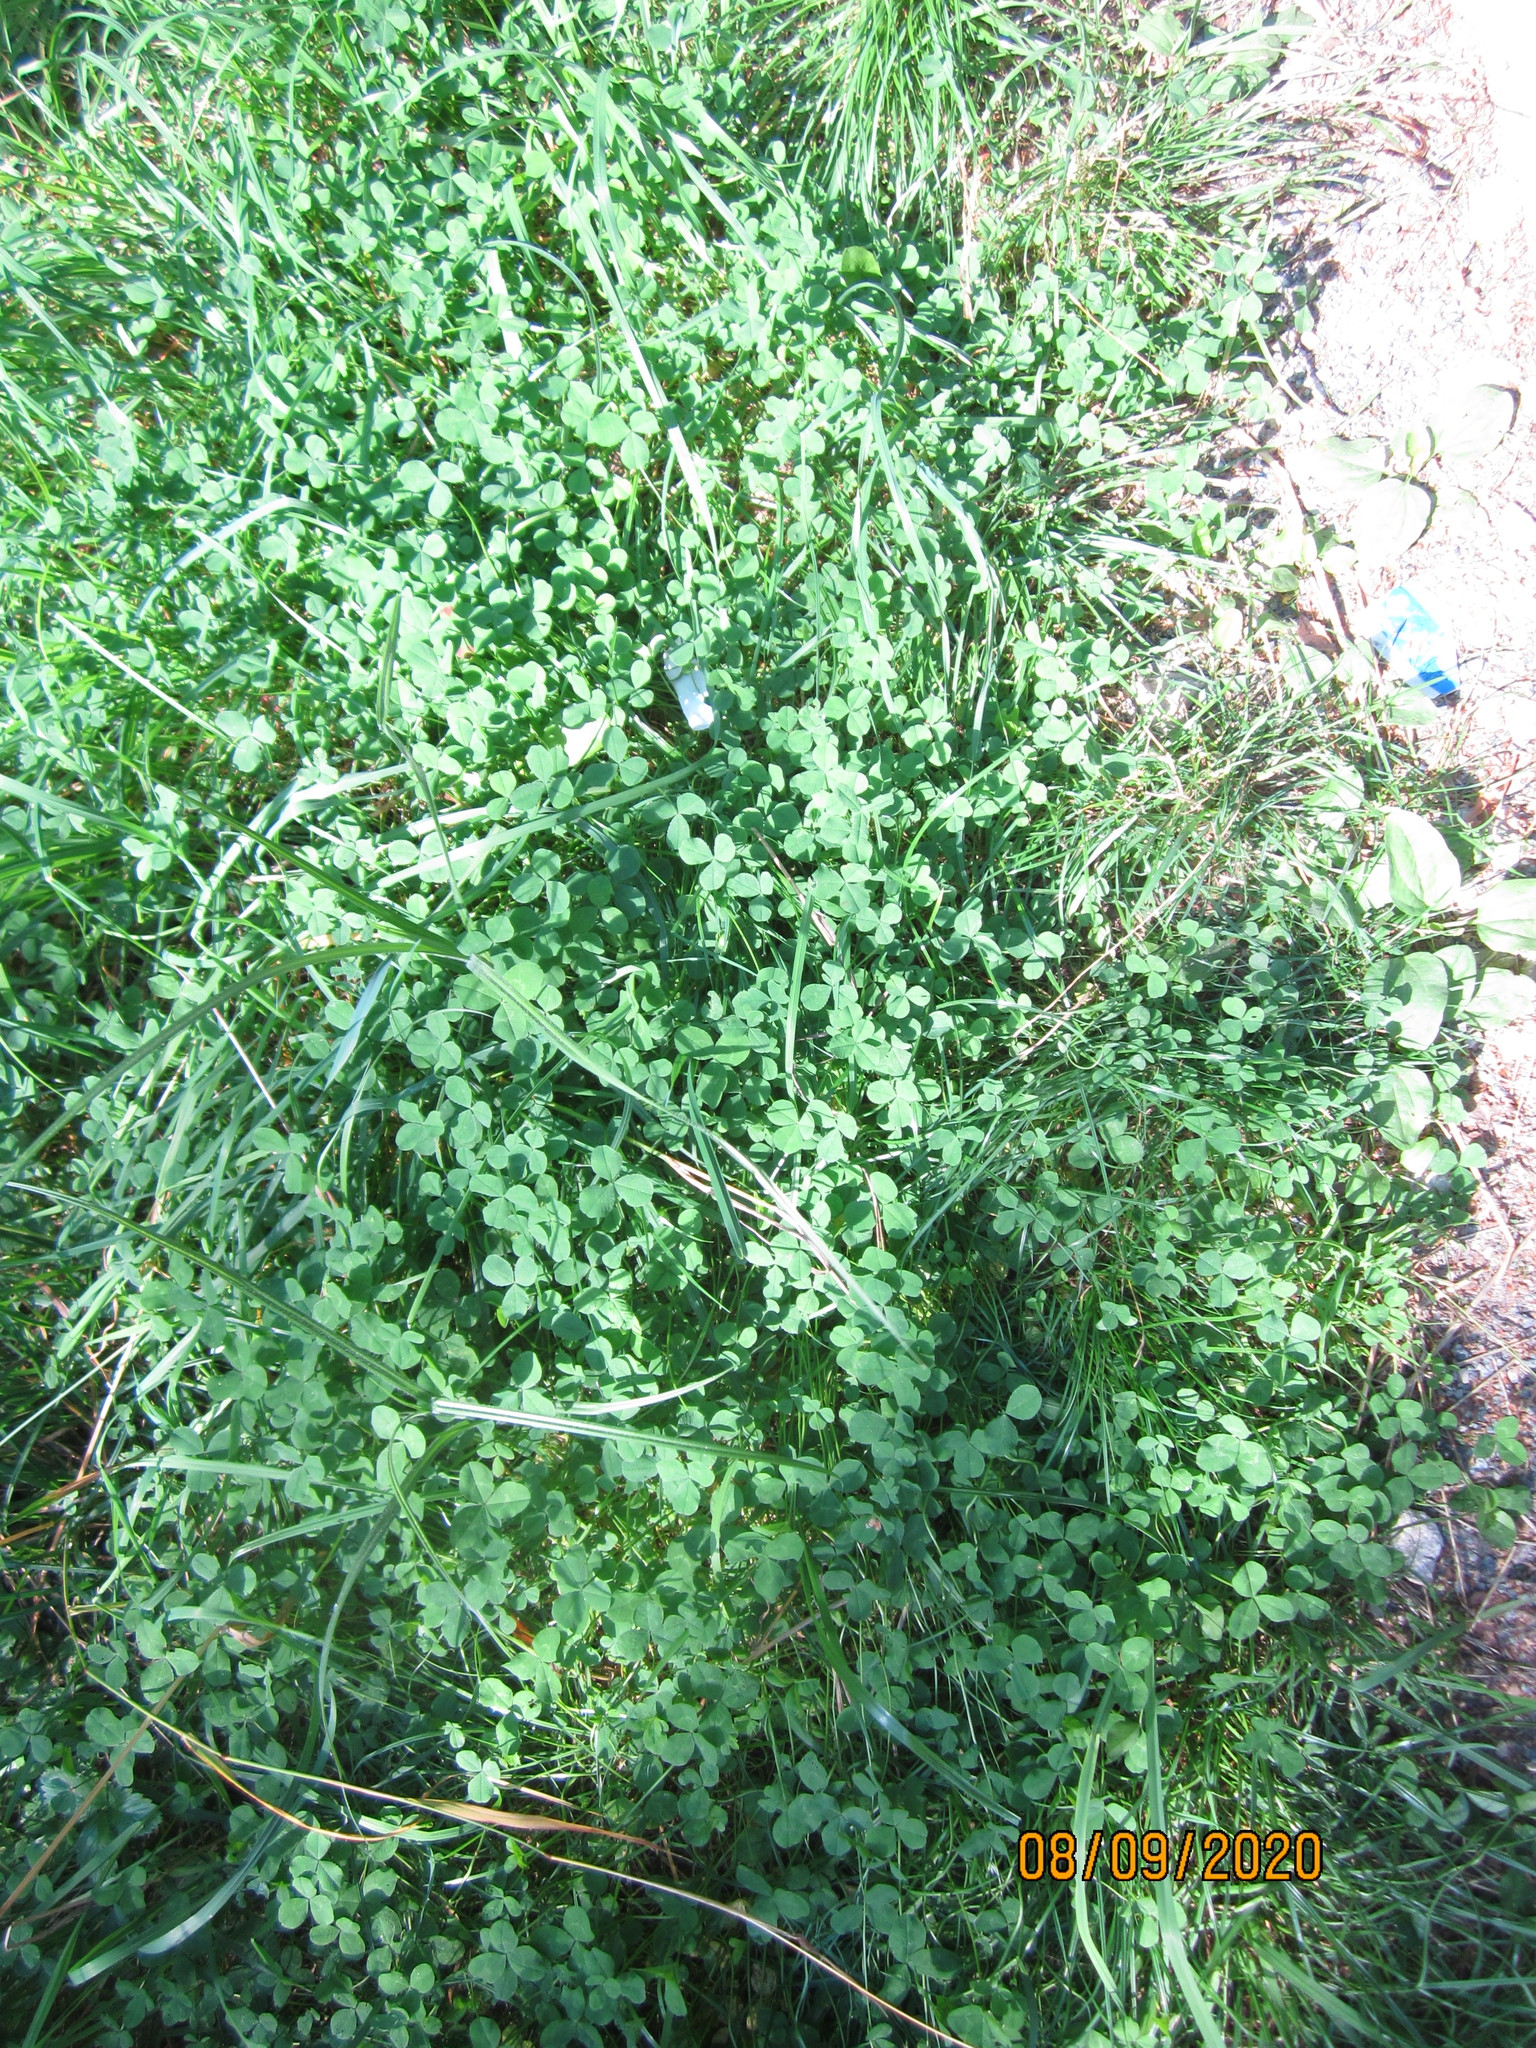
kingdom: Plantae
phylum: Tracheophyta
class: Magnoliopsida
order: Fabales
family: Fabaceae
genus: Trifolium
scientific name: Trifolium repens
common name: White clover
